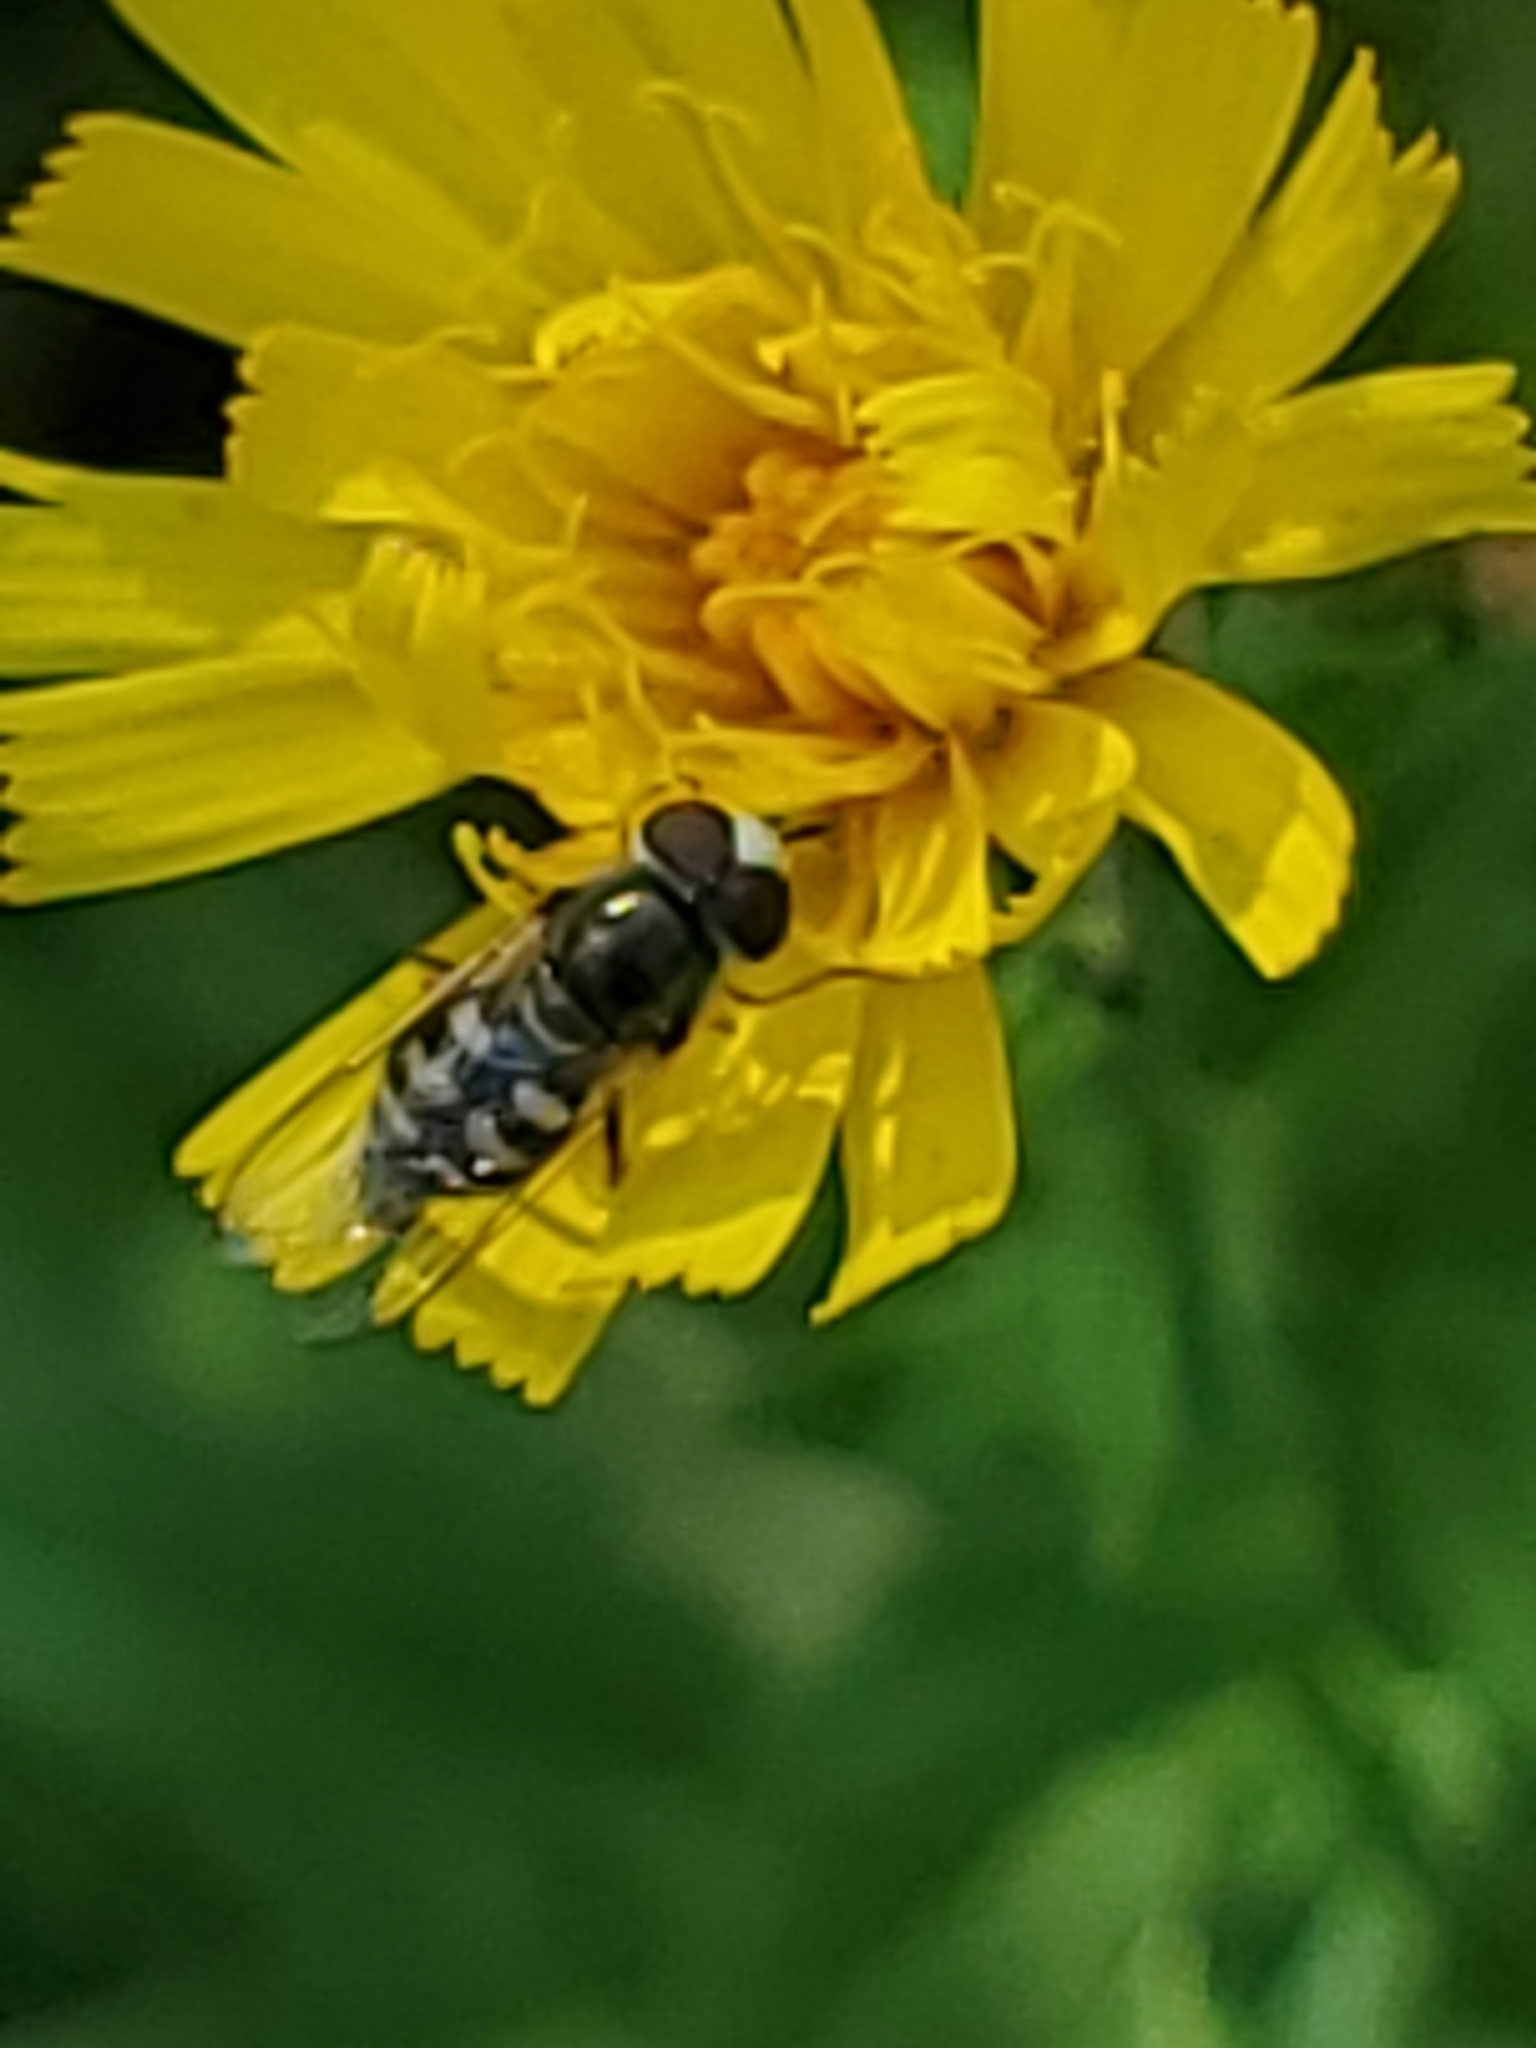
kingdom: Animalia
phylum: Arthropoda
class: Insecta
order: Diptera
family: Syrphidae
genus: Eupeodes
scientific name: Eupeodes volucris
